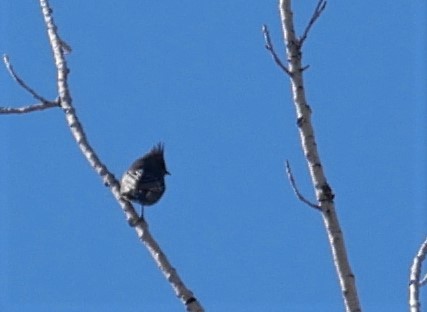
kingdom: Animalia
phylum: Chordata
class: Aves
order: Passeriformes
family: Ptilogonatidae
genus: Phainopepla
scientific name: Phainopepla nitens
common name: Phainopepla
